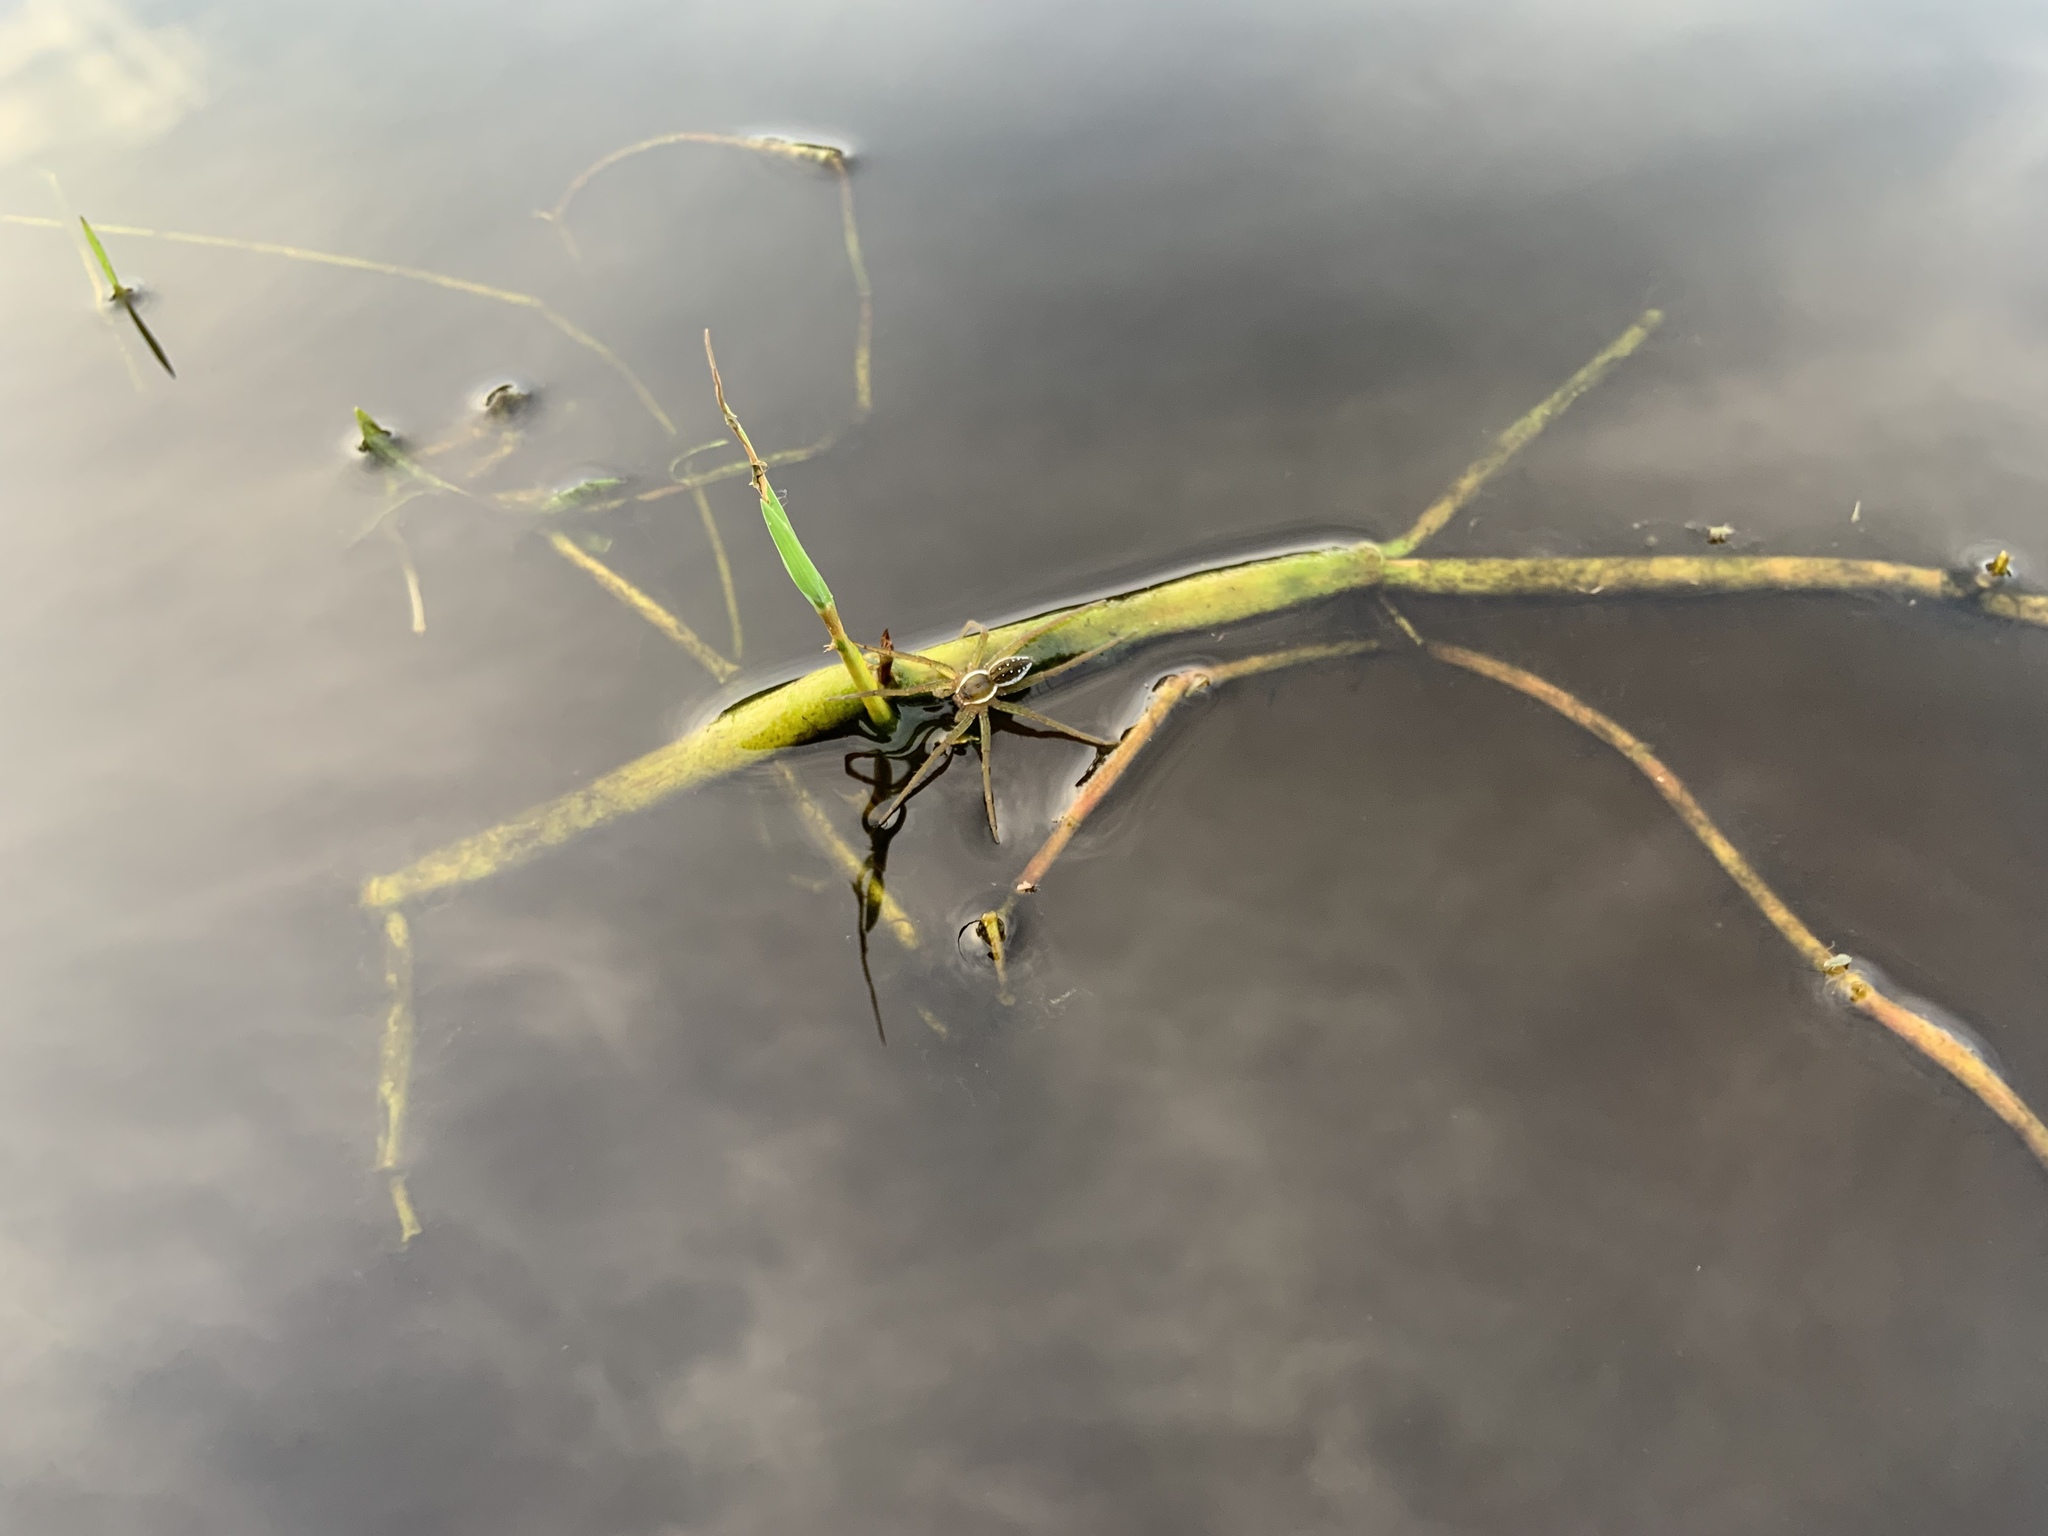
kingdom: Animalia
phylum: Arthropoda
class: Arachnida
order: Araneae
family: Pisauridae
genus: Dolomedes
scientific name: Dolomedes triton
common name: Six-spotted fishing spider
